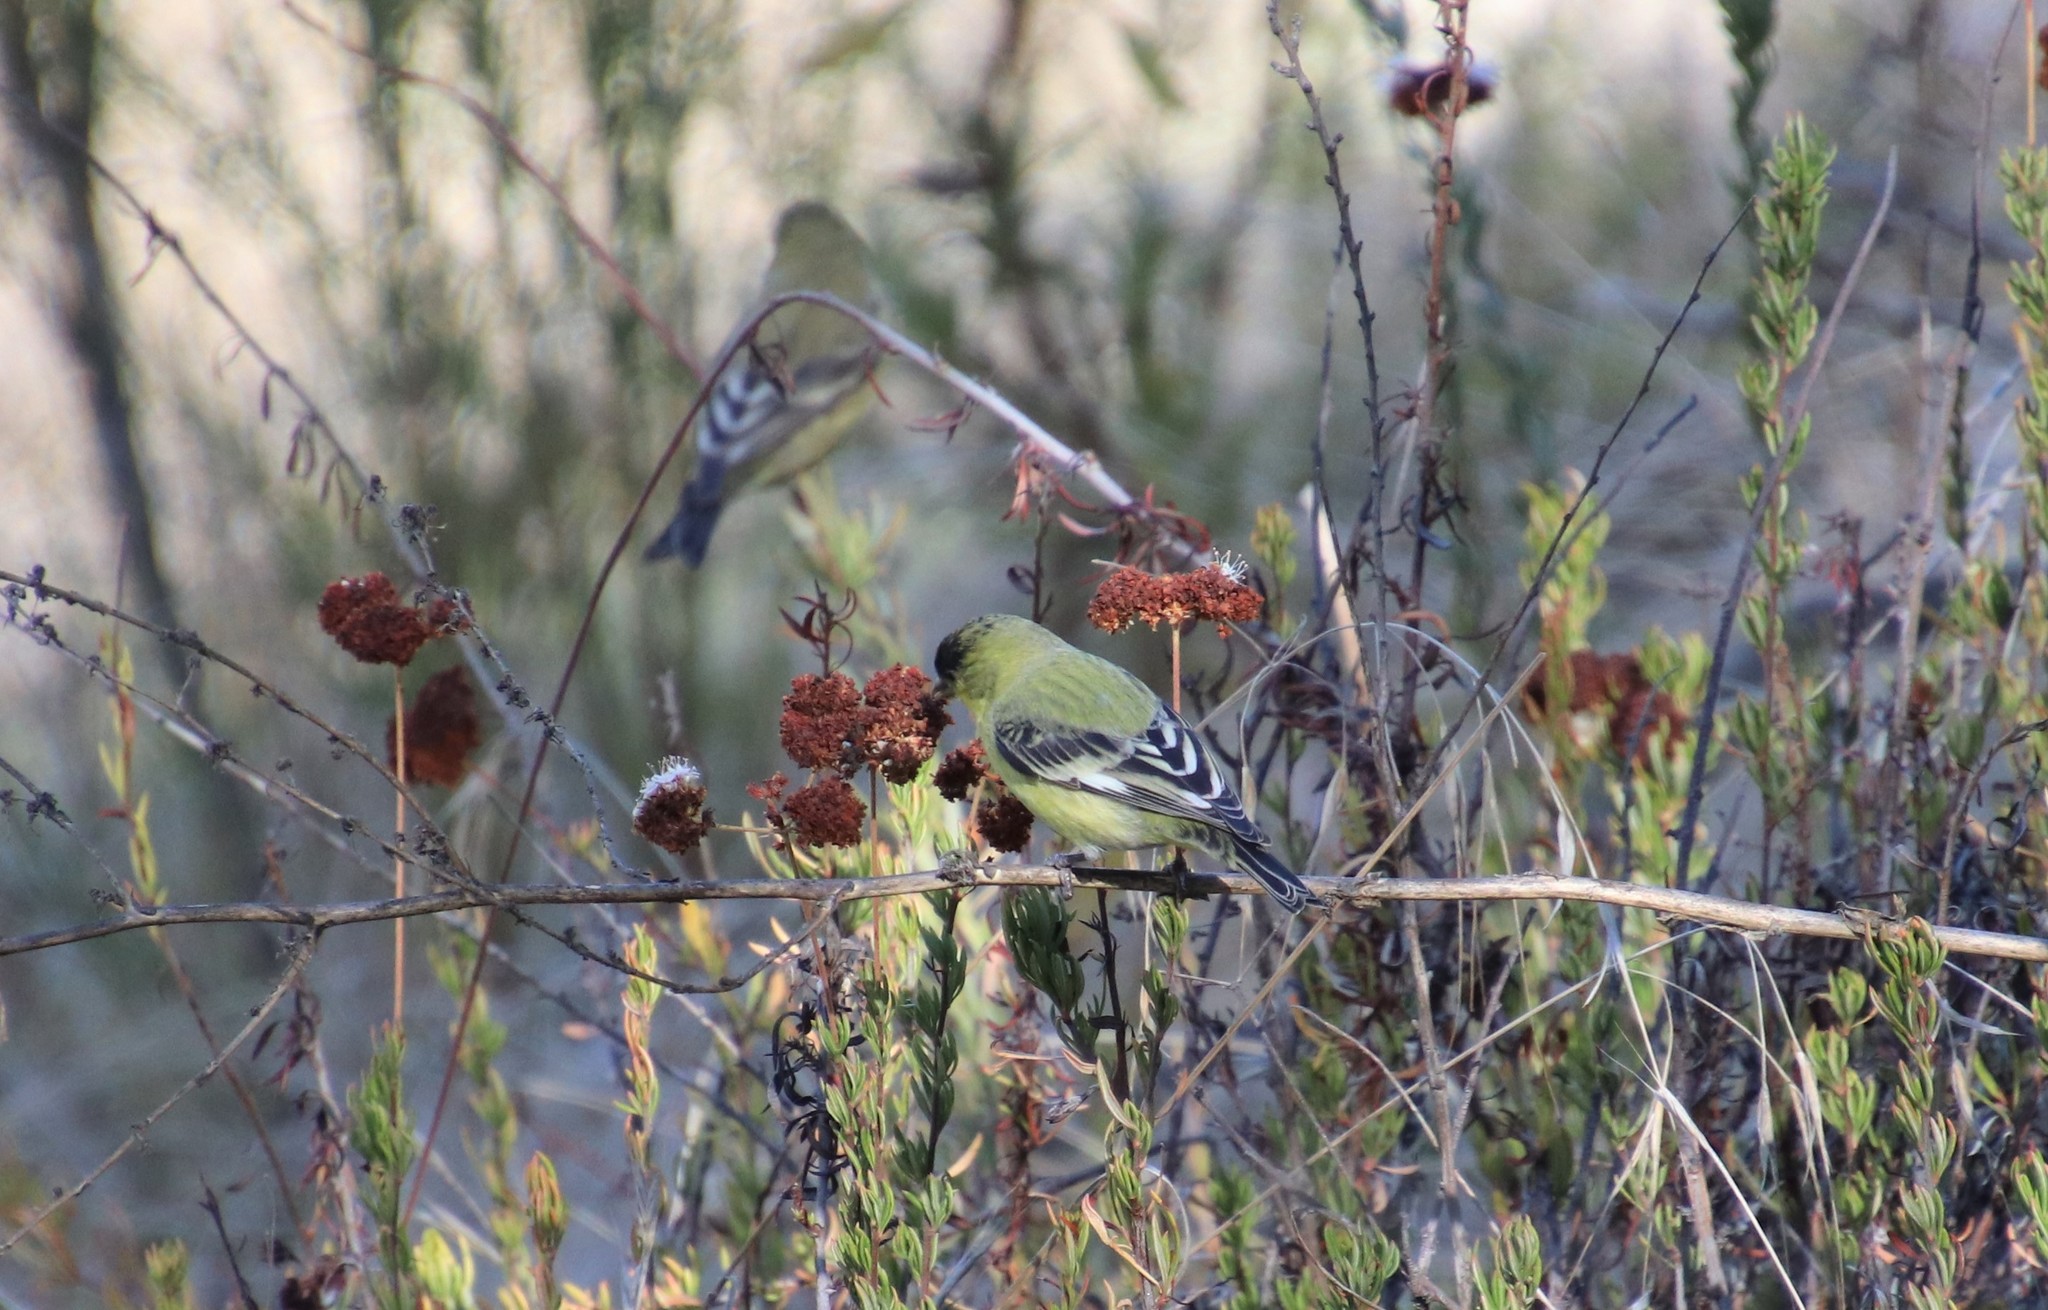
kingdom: Animalia
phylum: Chordata
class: Aves
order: Passeriformes
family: Fringillidae
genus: Spinus
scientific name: Spinus psaltria
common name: Lesser goldfinch
